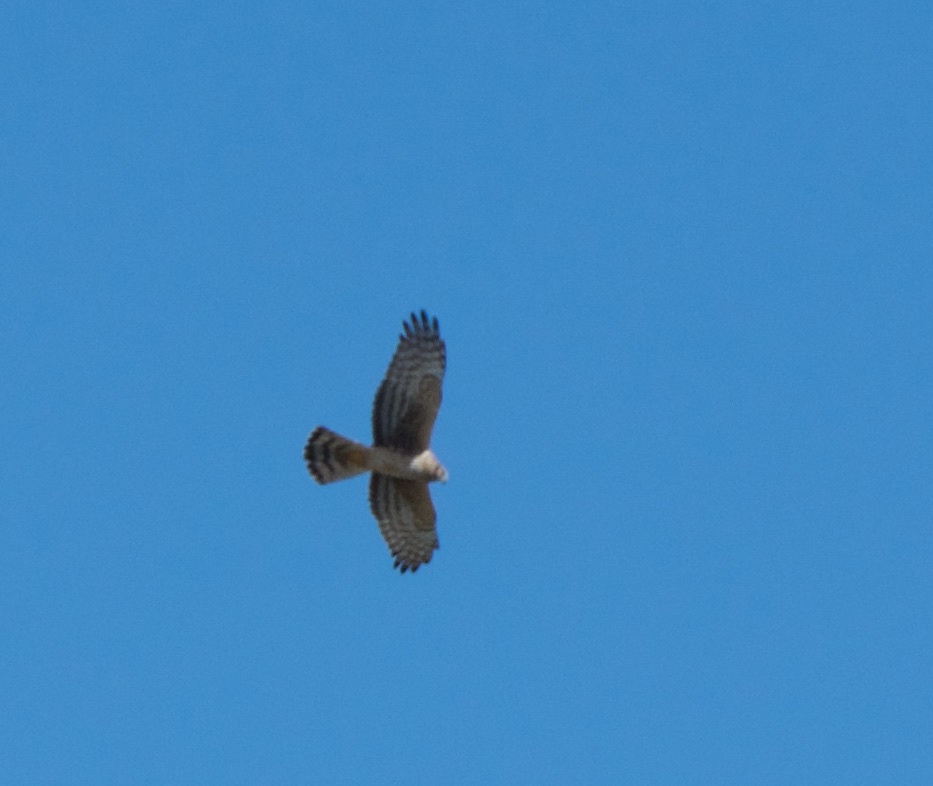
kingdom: Animalia
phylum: Chordata
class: Aves
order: Accipitriformes
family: Accipitridae
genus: Circus
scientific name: Circus cyaneus
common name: Hen harrier
